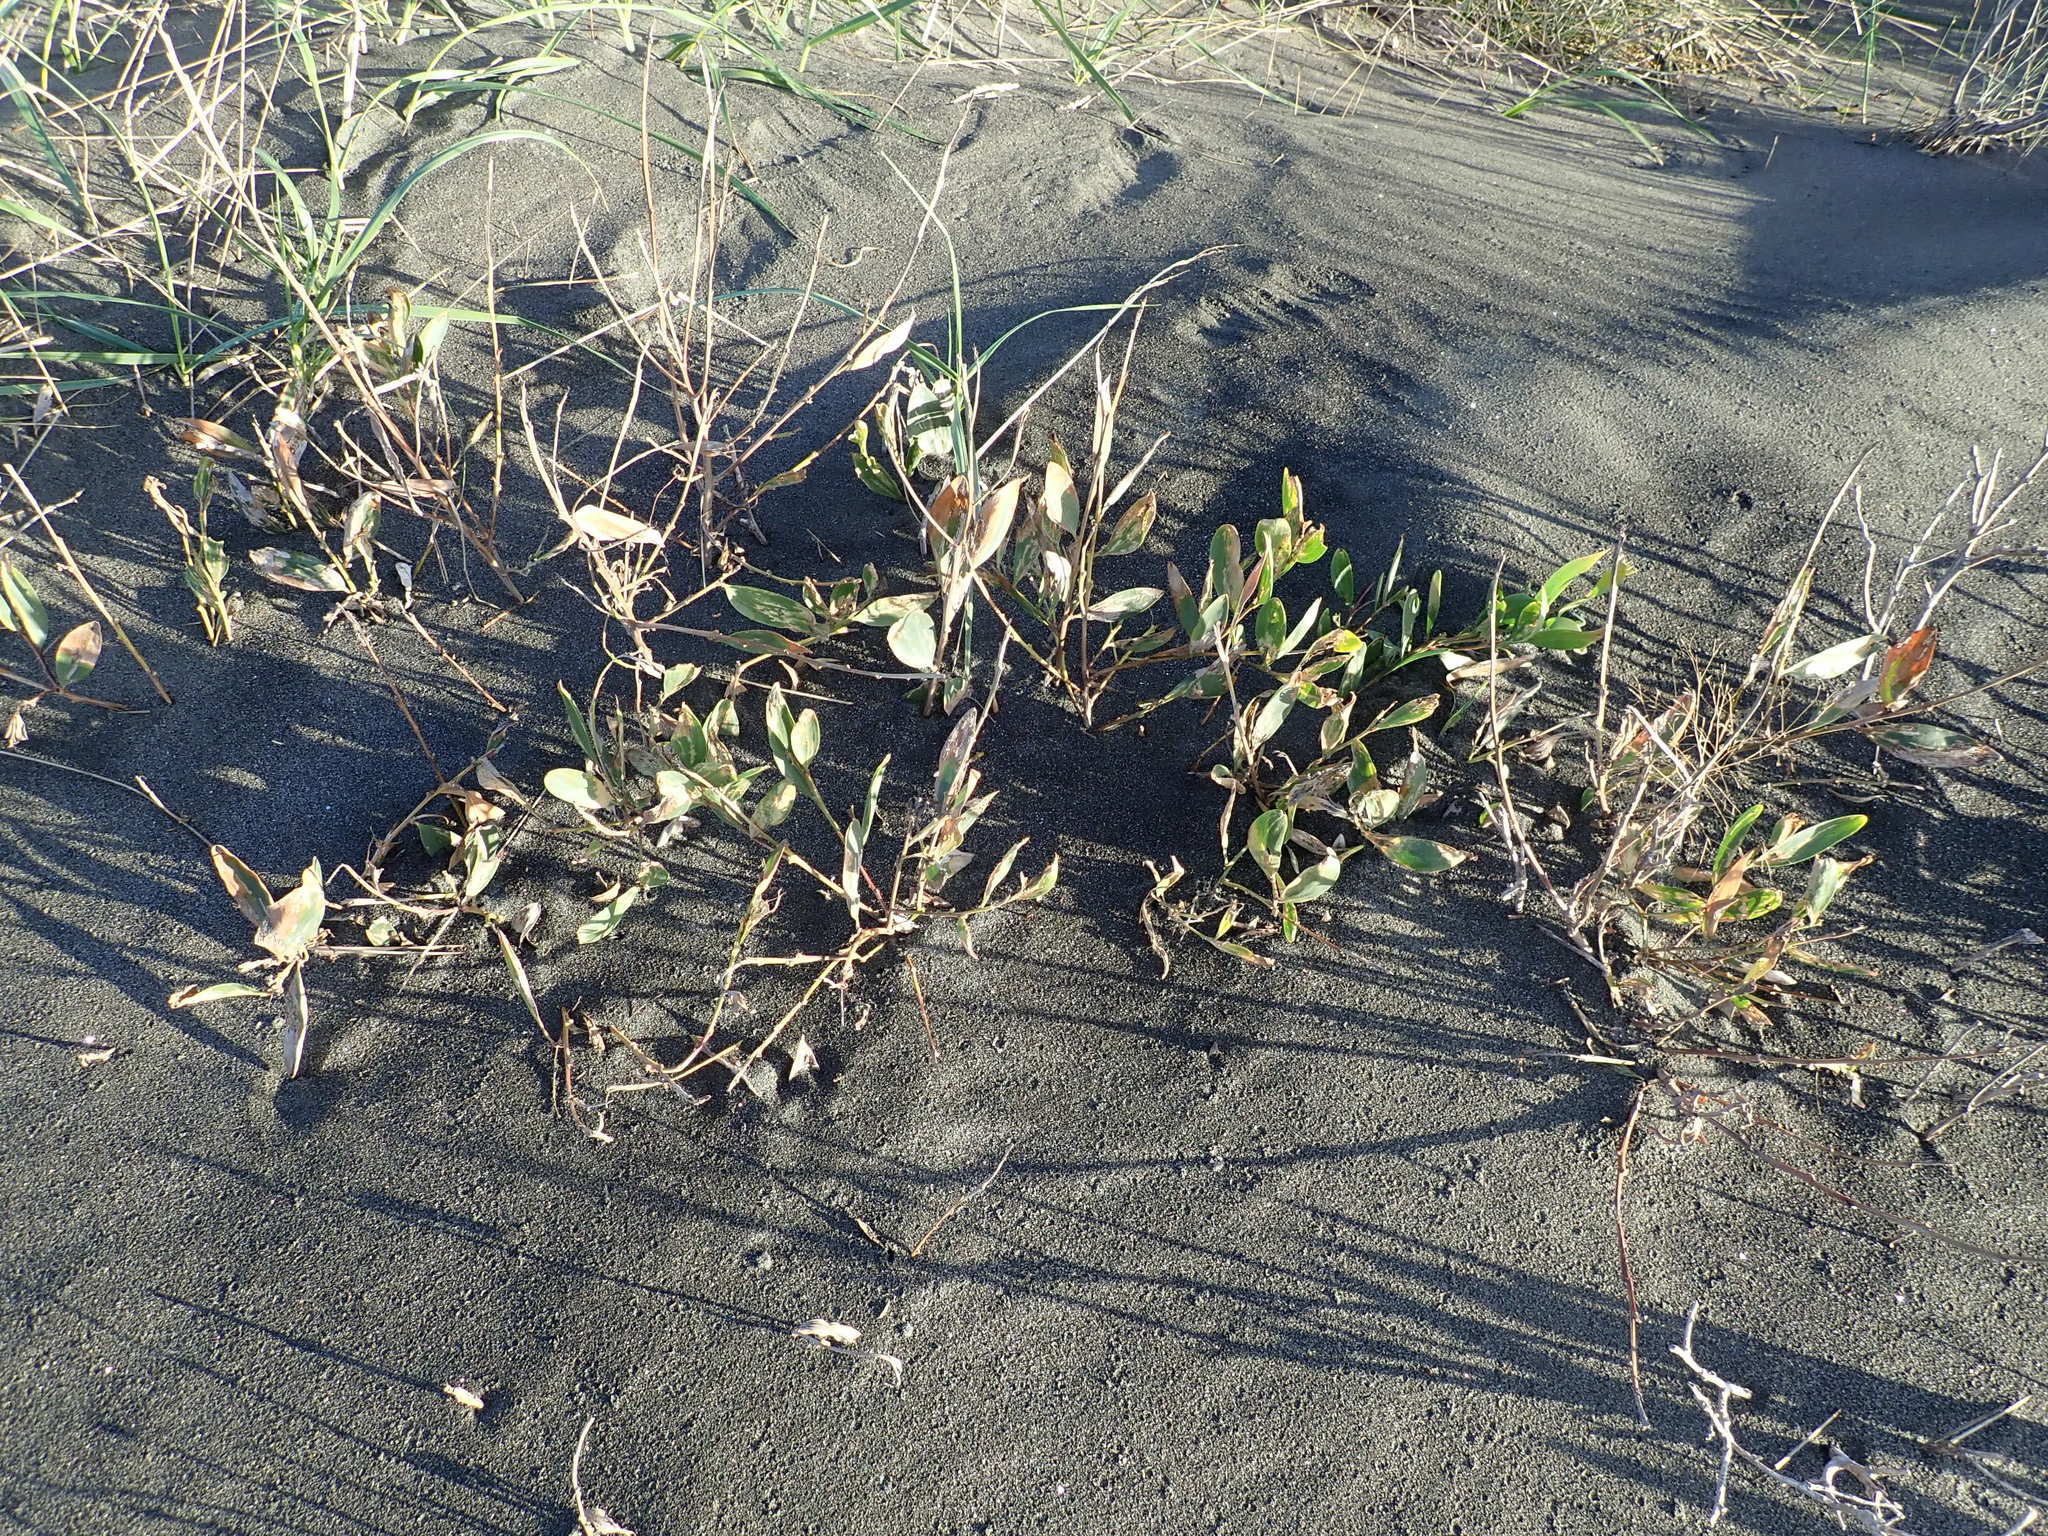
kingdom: Plantae
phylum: Tracheophyta
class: Magnoliopsida
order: Fabales
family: Fabaceae
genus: Acacia
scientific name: Acacia longifolia
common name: Sydney golden wattle
